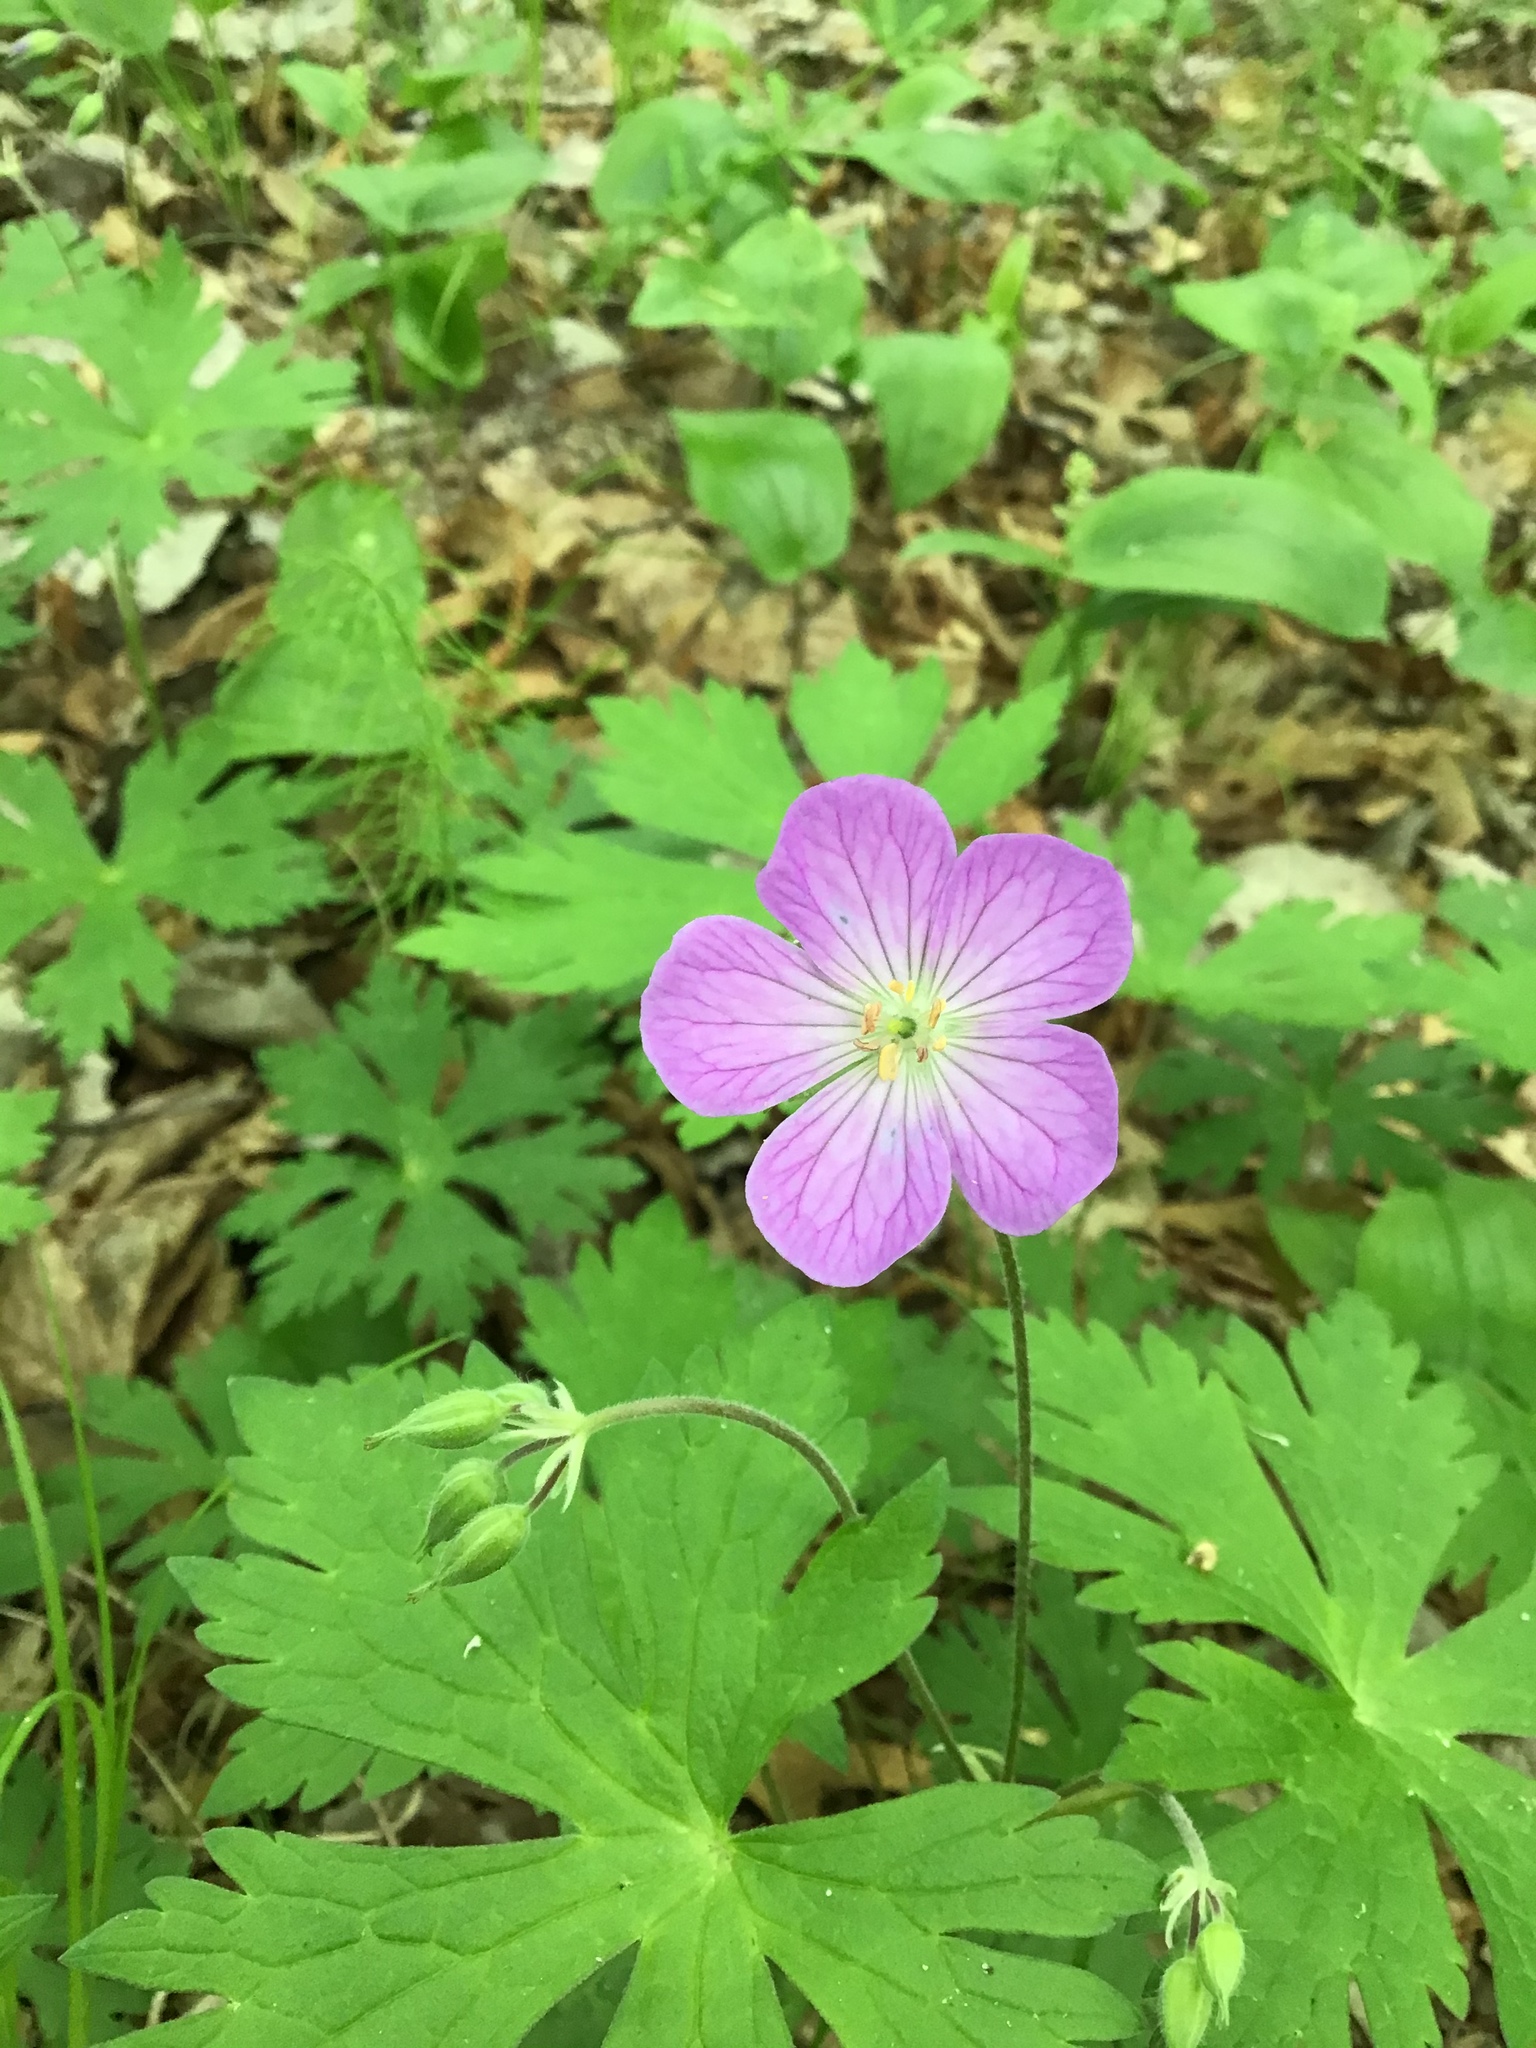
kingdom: Plantae
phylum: Tracheophyta
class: Magnoliopsida
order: Geraniales
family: Geraniaceae
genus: Geranium
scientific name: Geranium maculatum
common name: Spotted geranium
